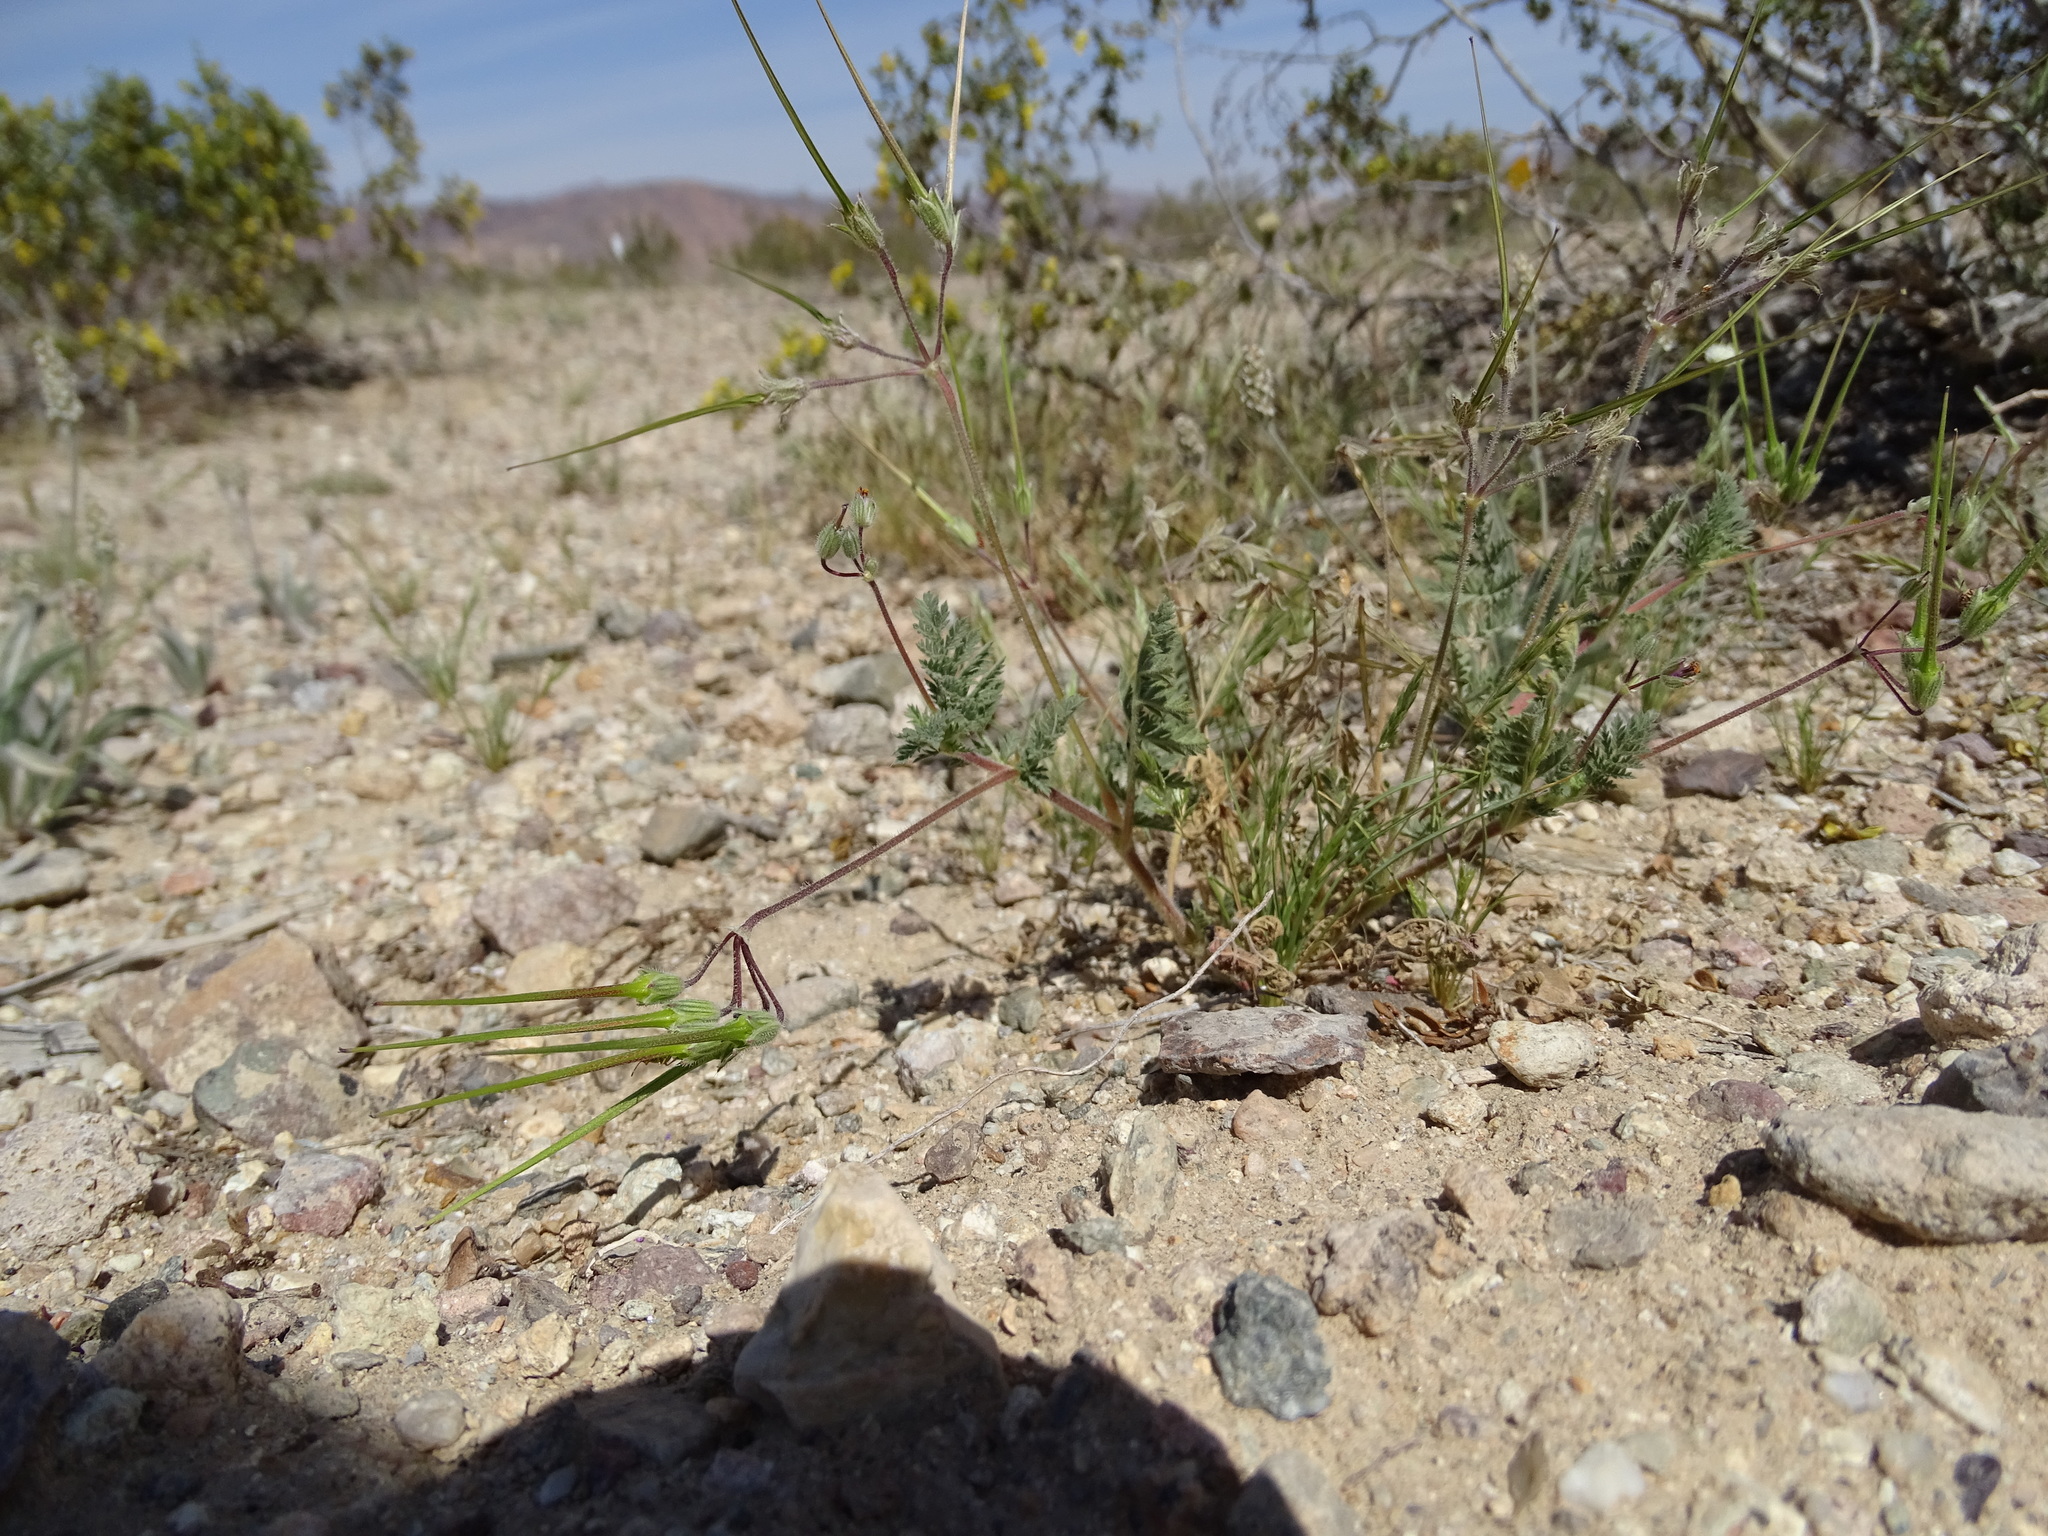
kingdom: Plantae
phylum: Tracheophyta
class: Magnoliopsida
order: Geraniales
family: Geraniaceae
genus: Erodium
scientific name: Erodium cicutarium
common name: Common stork's-bill
